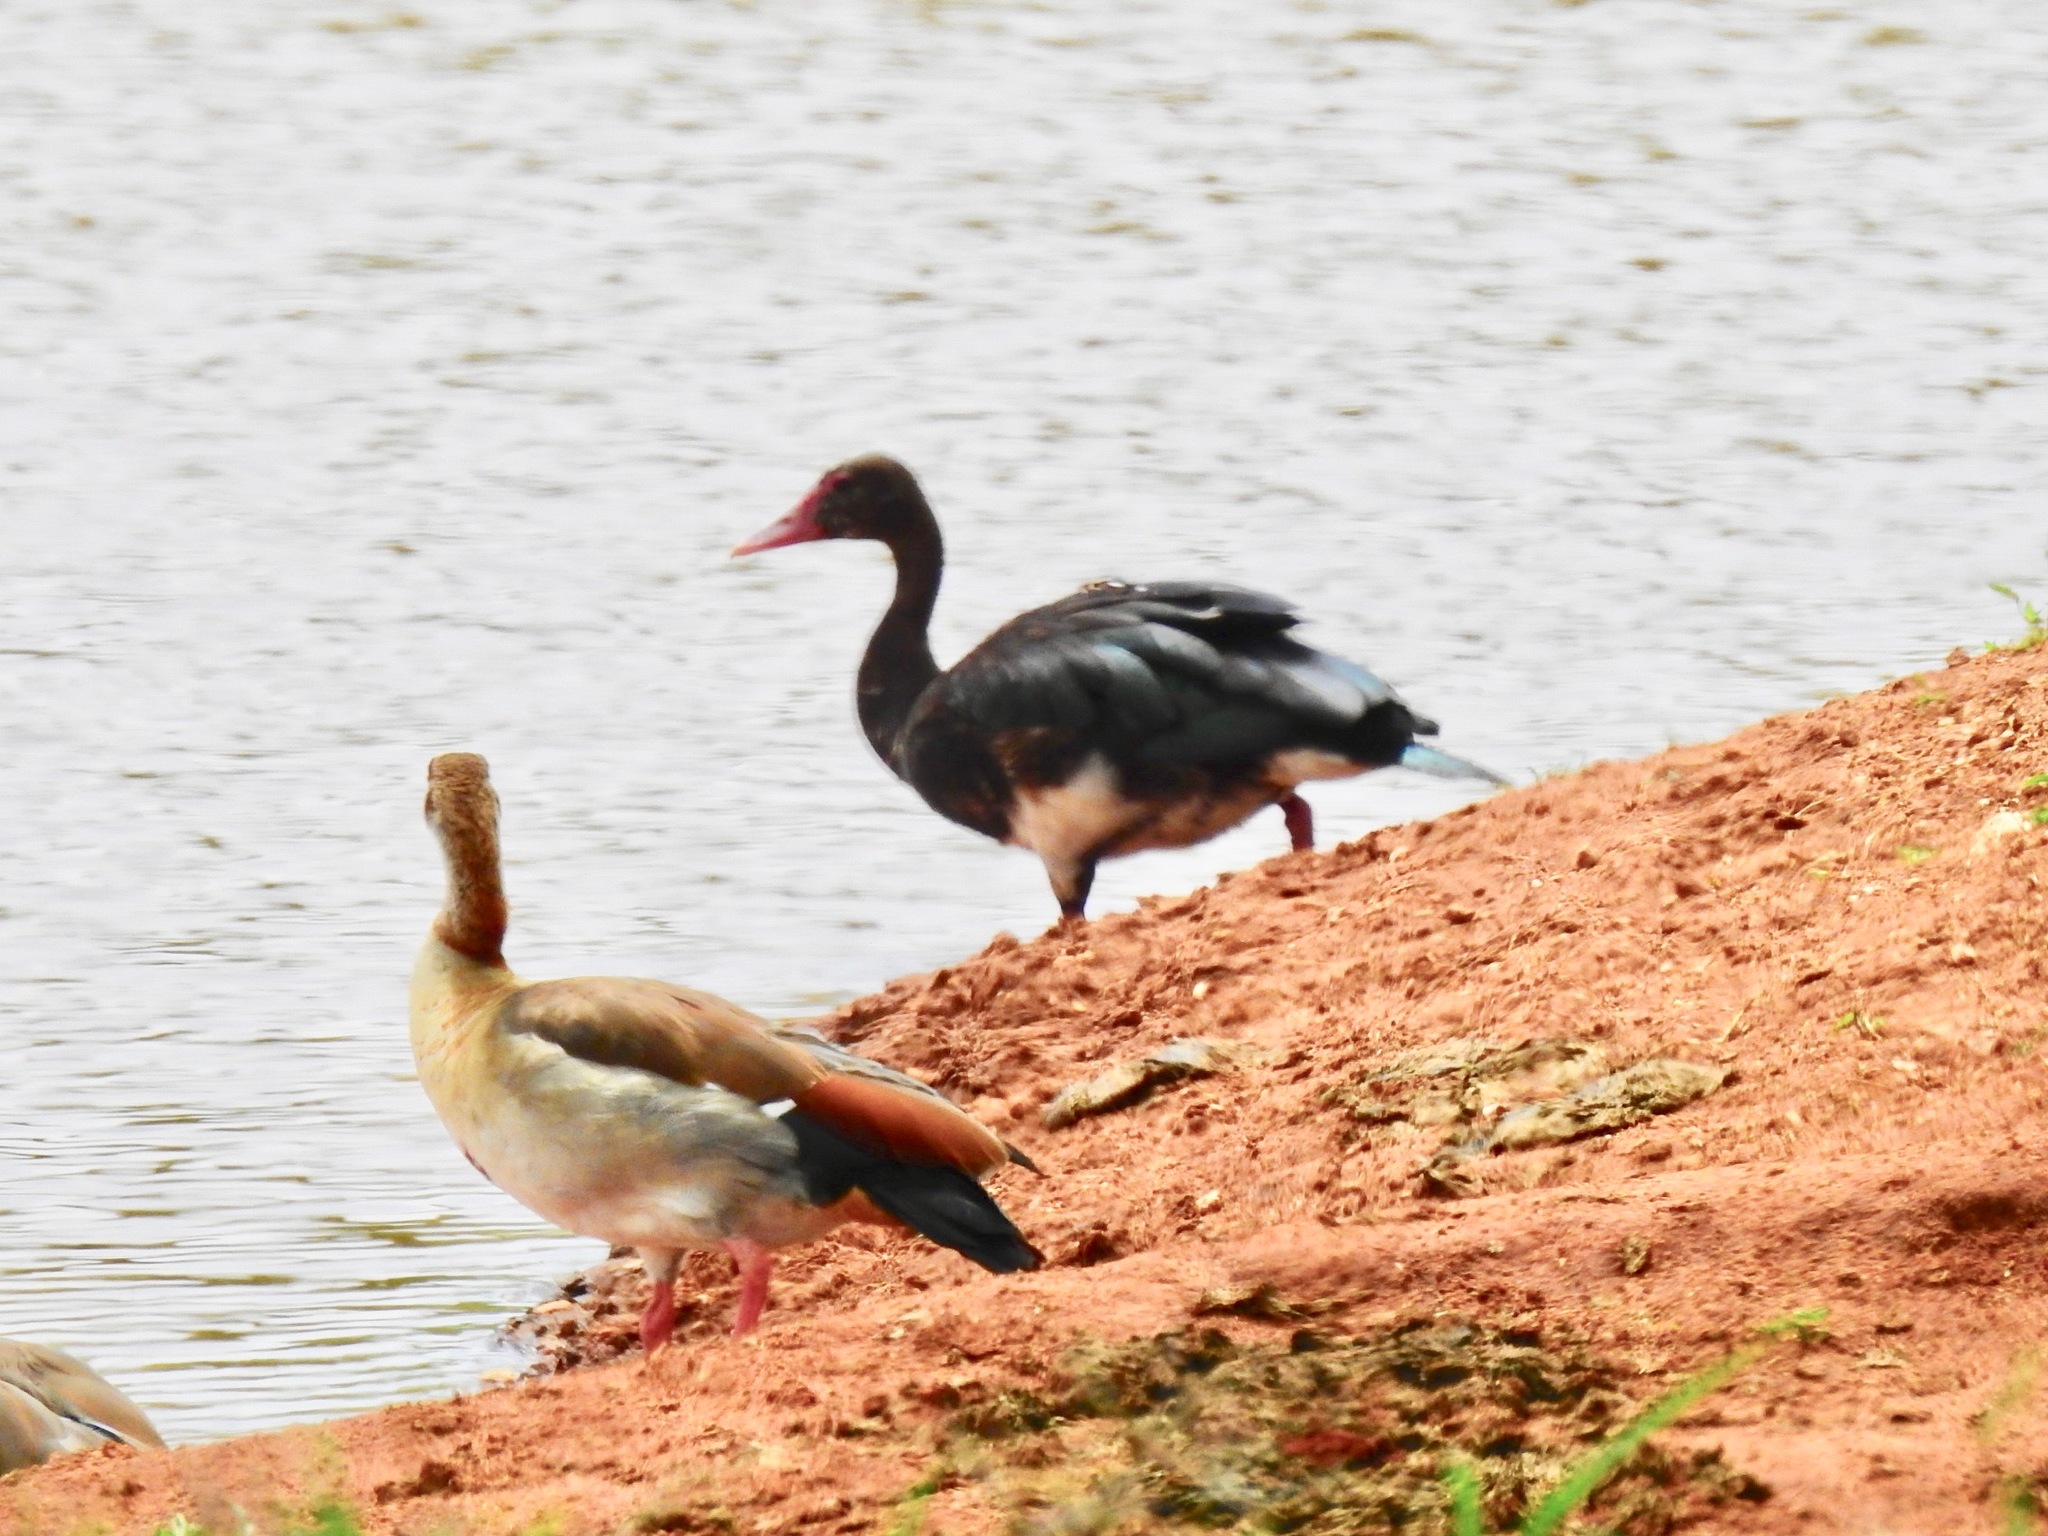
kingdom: Animalia
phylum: Chordata
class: Aves
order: Anseriformes
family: Anatidae
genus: Alopochen
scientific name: Alopochen aegyptiaca
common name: Egyptian goose
